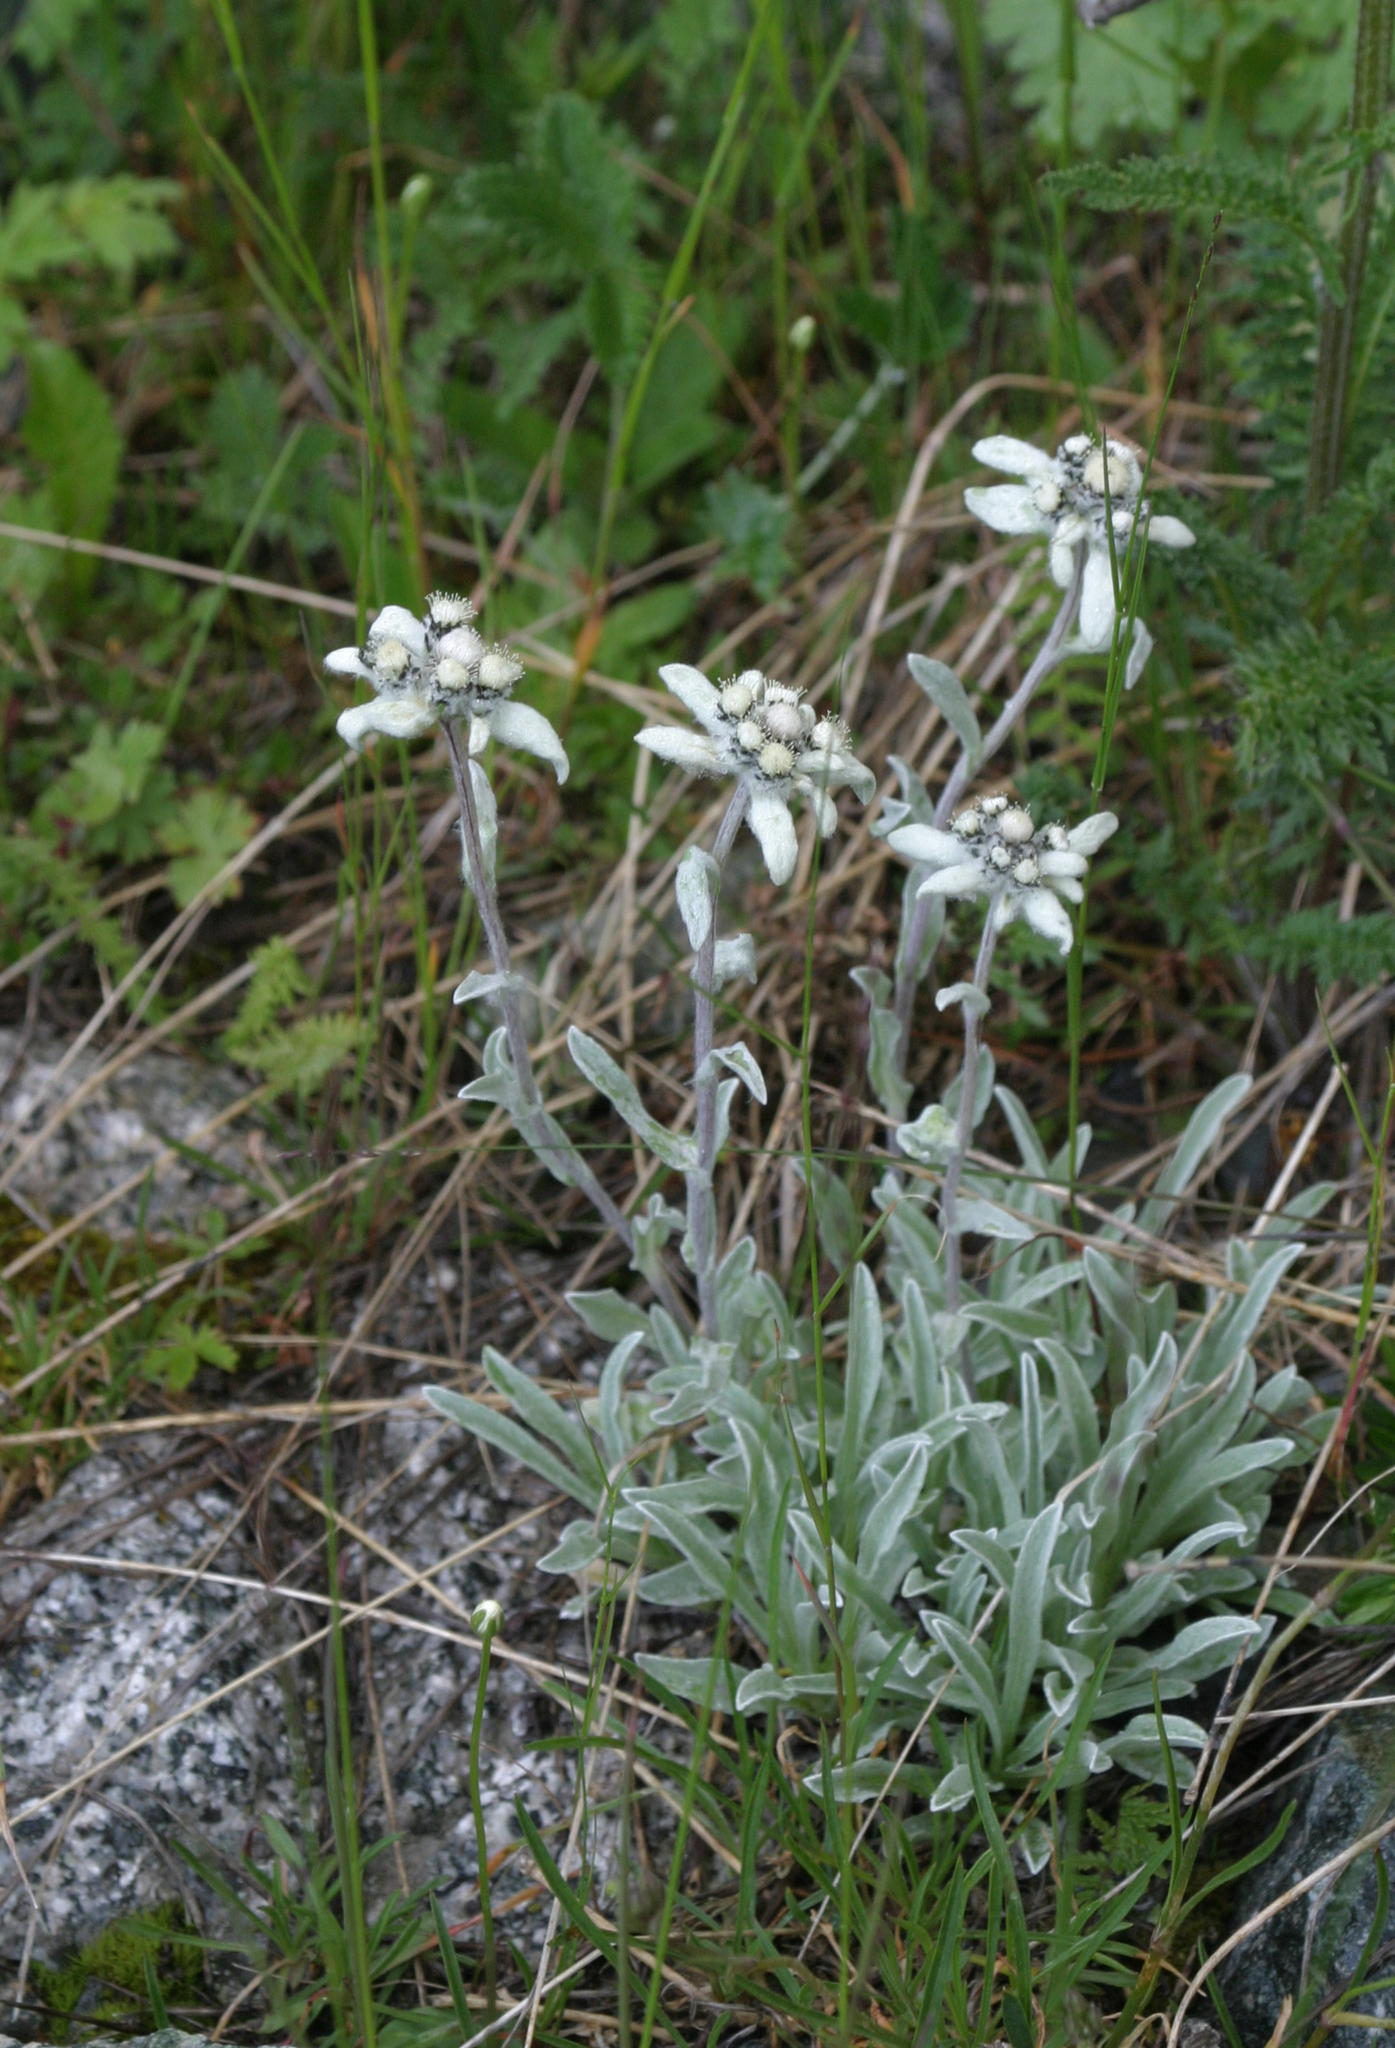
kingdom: Plantae
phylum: Tracheophyta
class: Magnoliopsida
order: Asterales
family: Asteraceae
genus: Leontopodium
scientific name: Leontopodium leontopodinum
